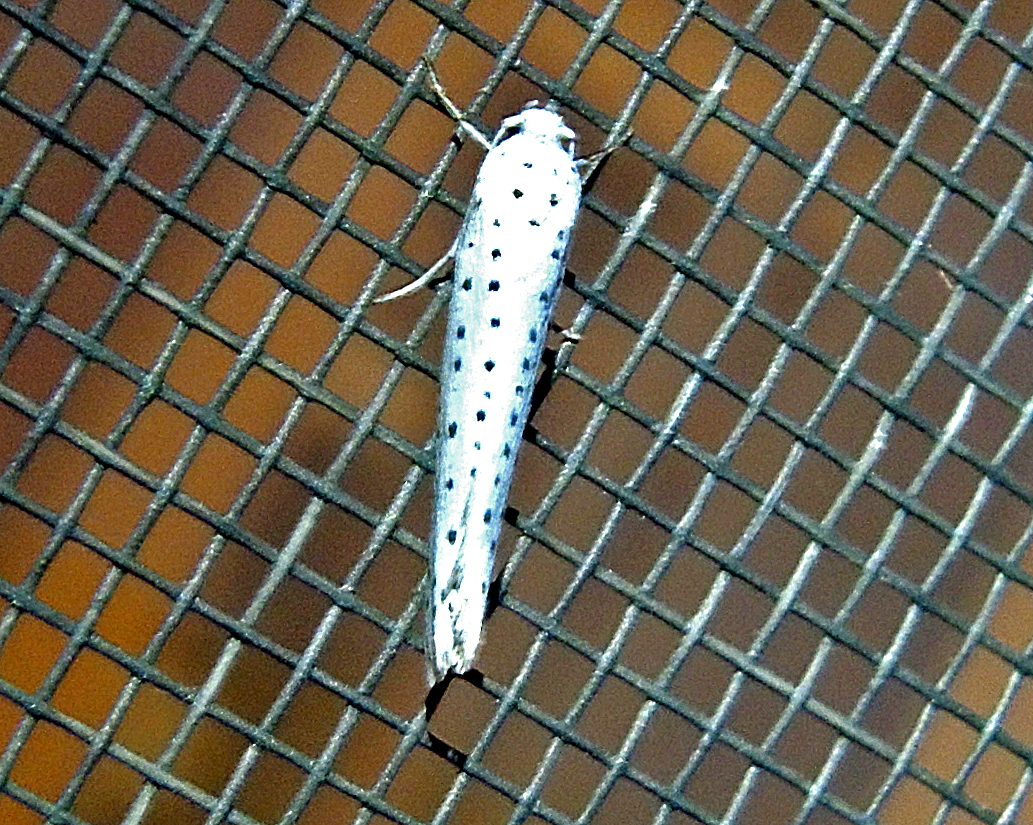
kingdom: Animalia
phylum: Arthropoda
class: Insecta
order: Lepidoptera
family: Yponomeutidae
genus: Yponomeuta
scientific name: Yponomeuta evonymella
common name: Bird-cherry ermine
